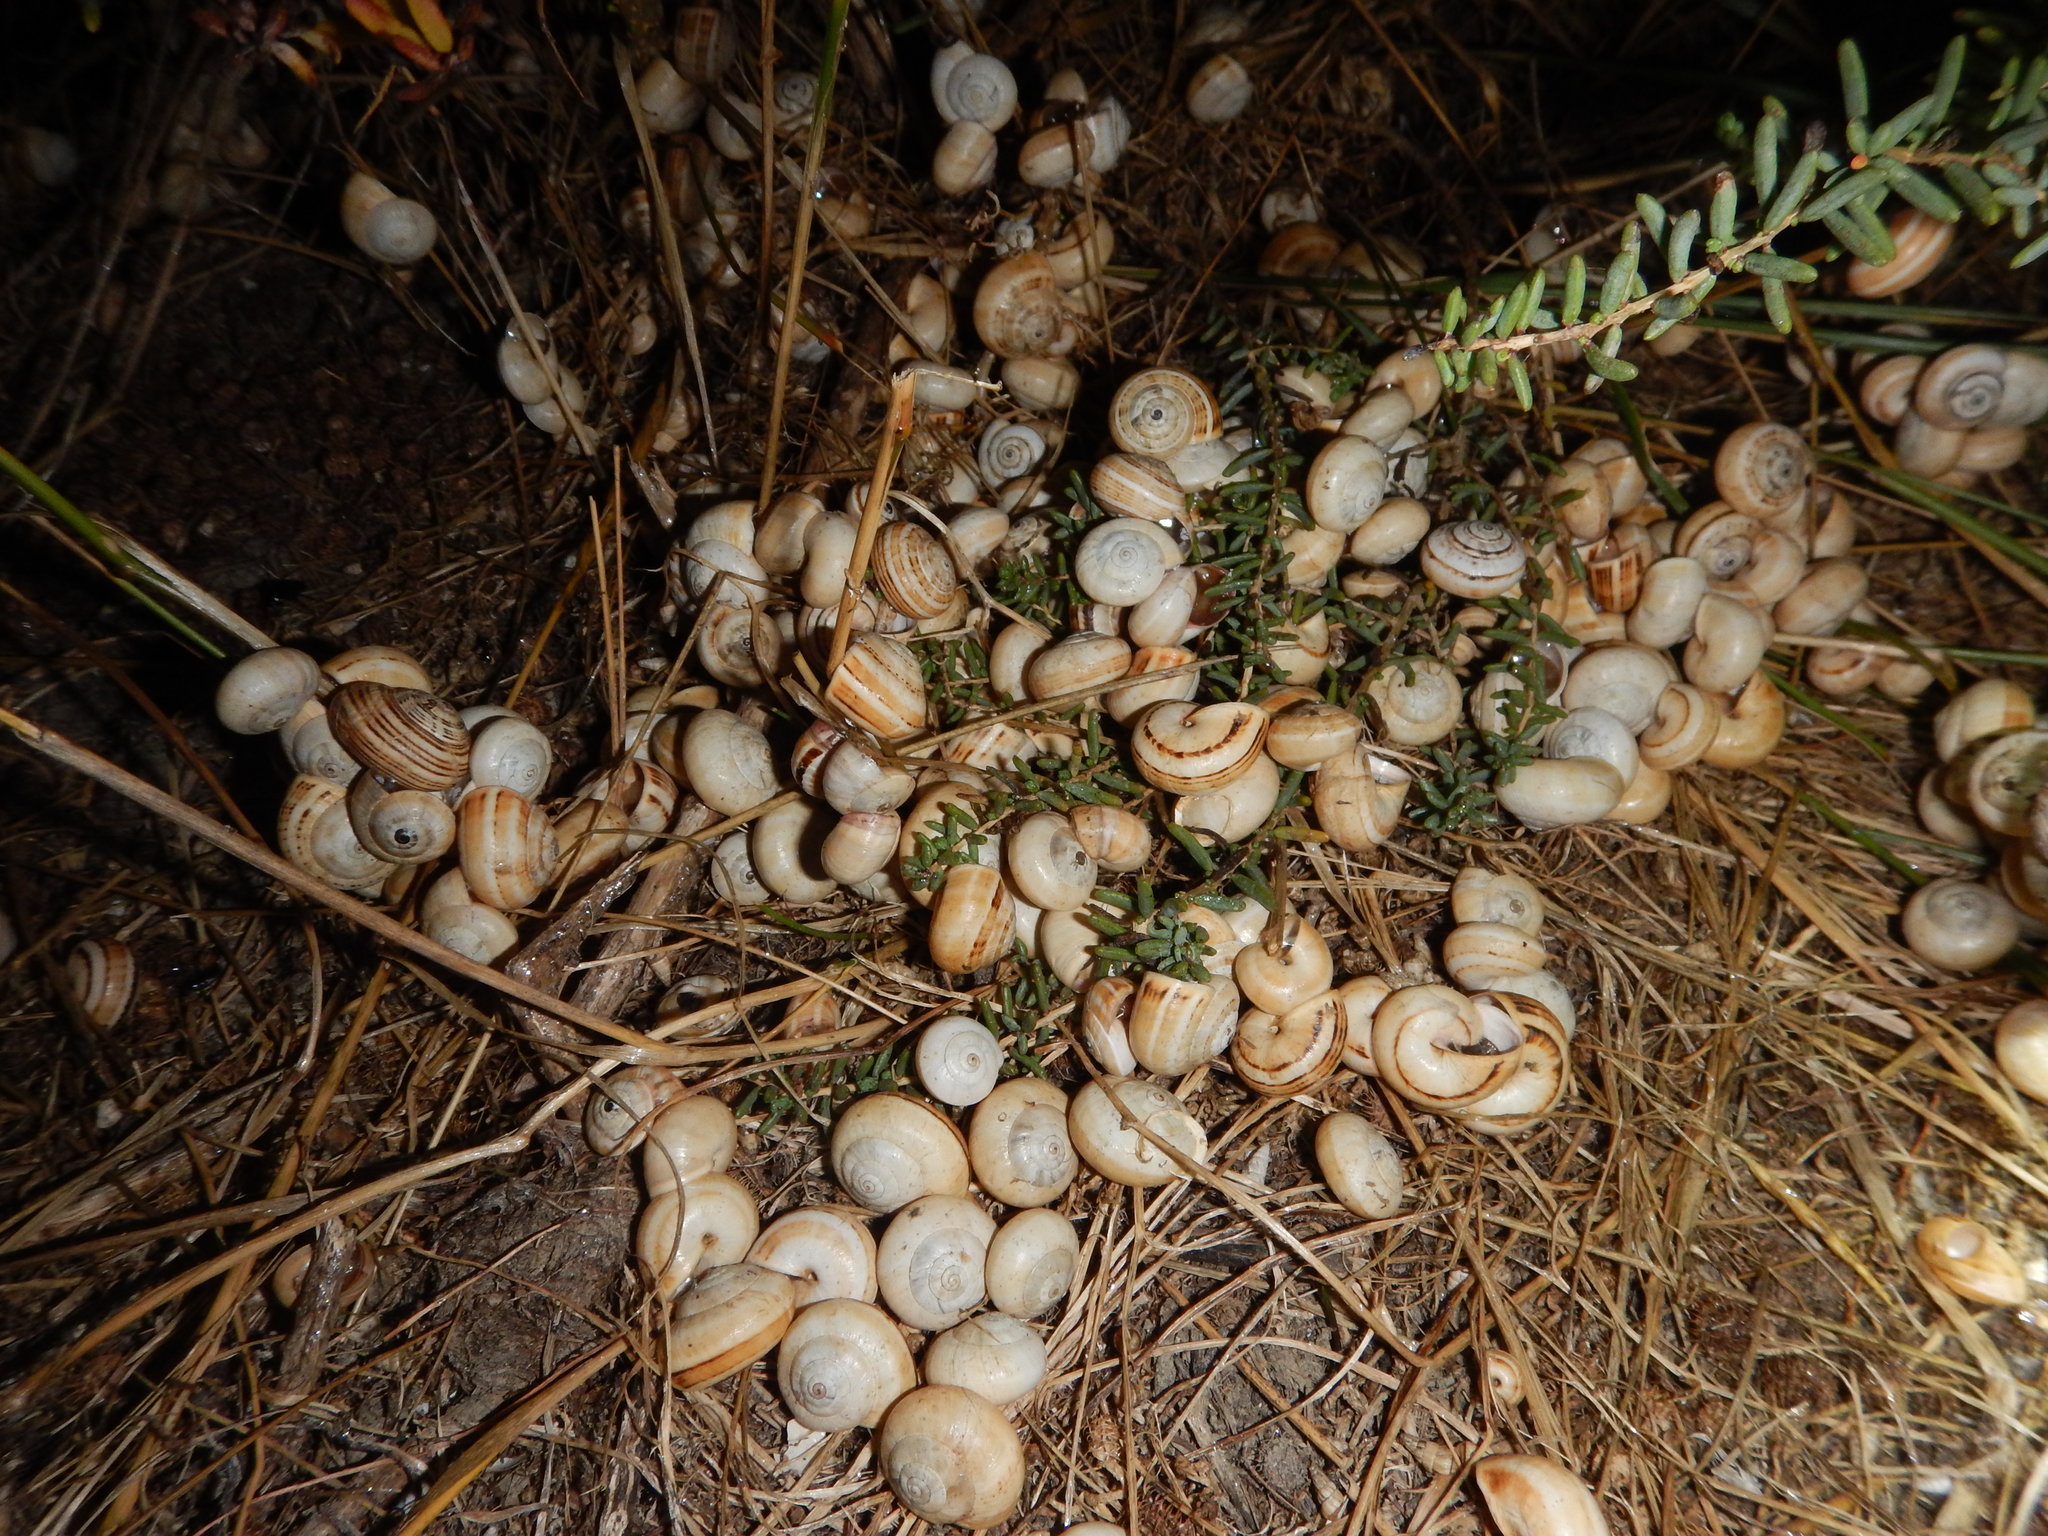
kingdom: Animalia
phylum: Mollusca
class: Gastropoda
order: Stylommatophora
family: Helicidae
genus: Theba
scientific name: Theba pisana
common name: White snail
